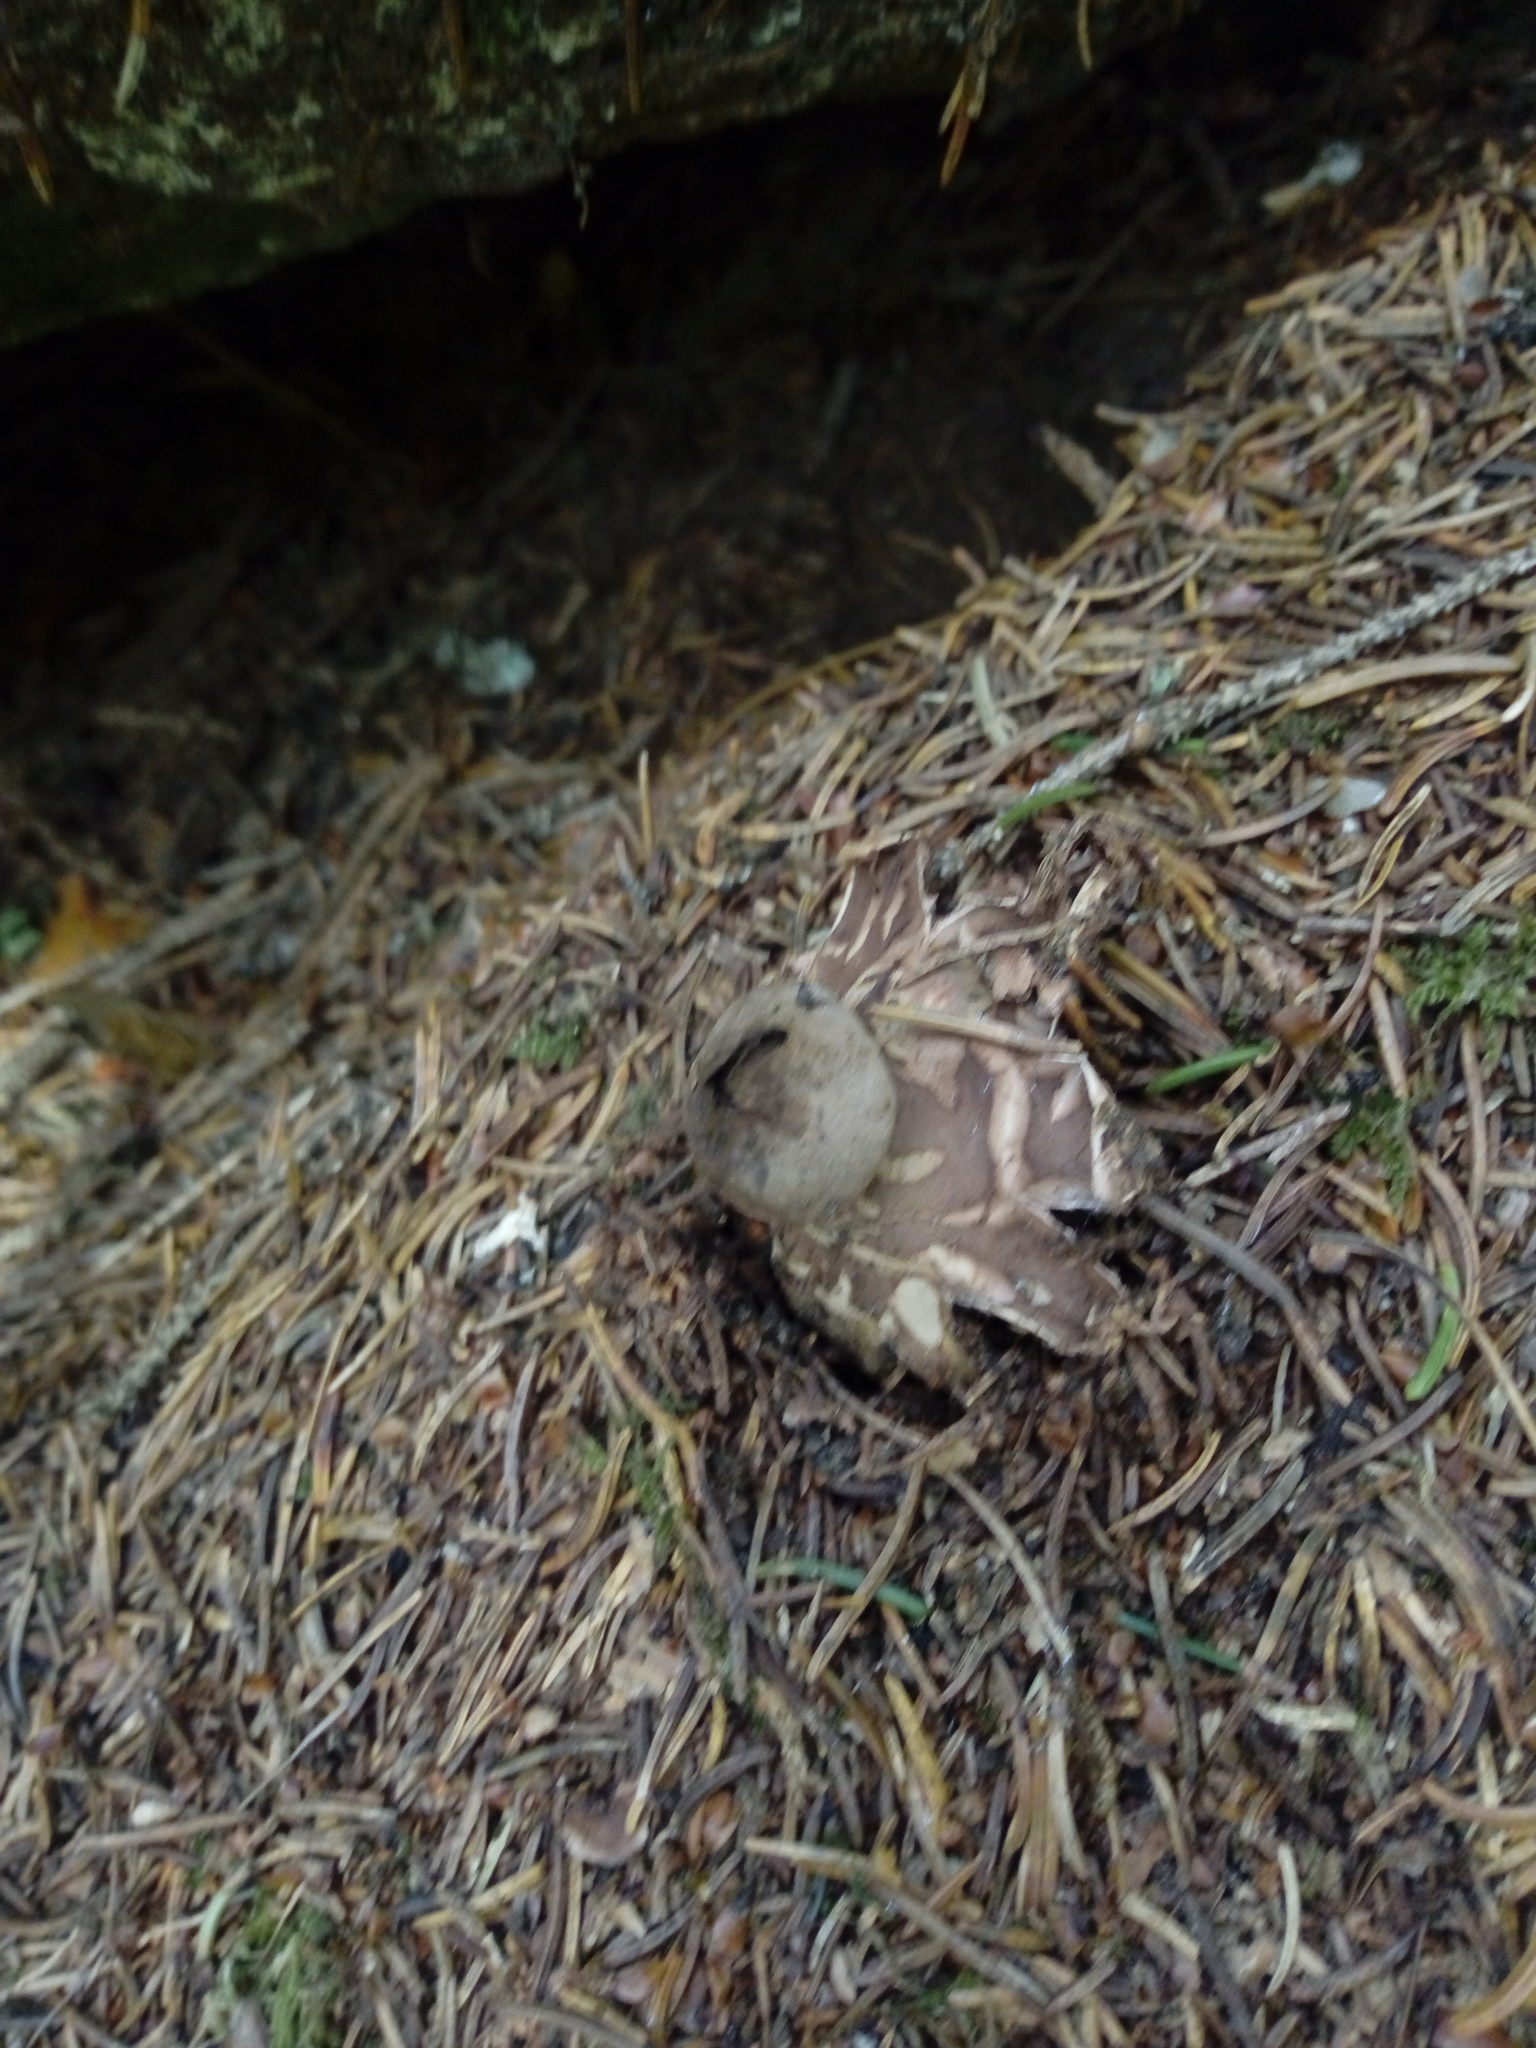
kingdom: Fungi
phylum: Basidiomycota
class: Agaricomycetes
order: Geastrales
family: Geastraceae
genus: Geastrum
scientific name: Geastrum rufescens
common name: Rosy earthstar
